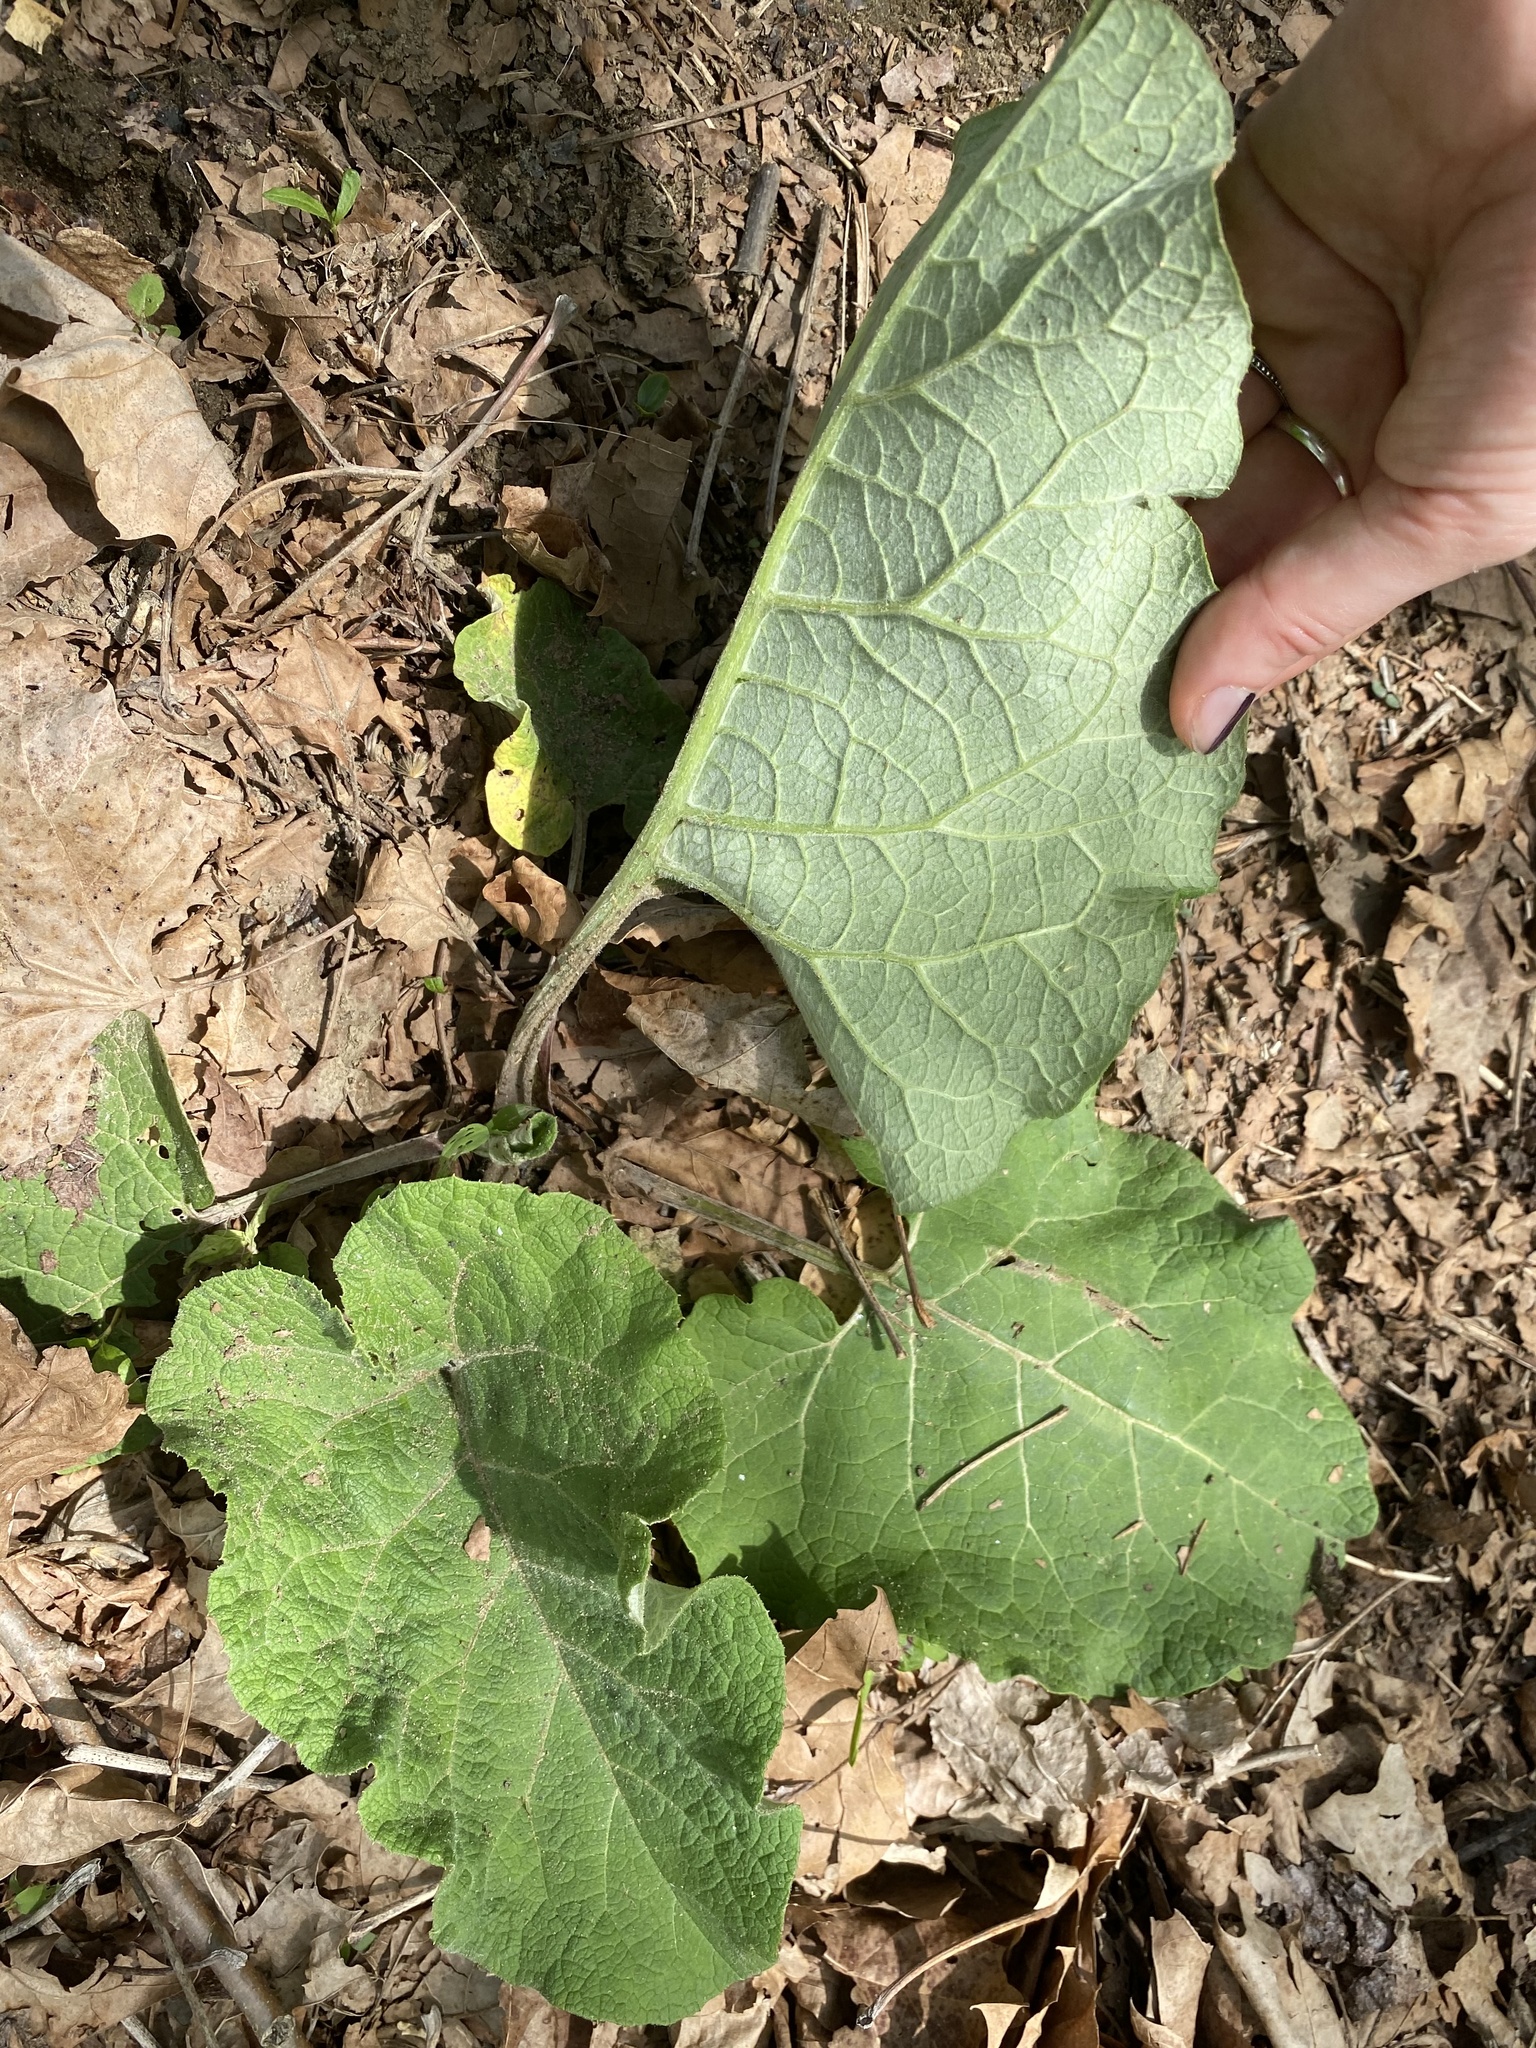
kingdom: Plantae
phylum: Tracheophyta
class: Magnoliopsida
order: Asterales
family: Asteraceae
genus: Arctium
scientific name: Arctium
